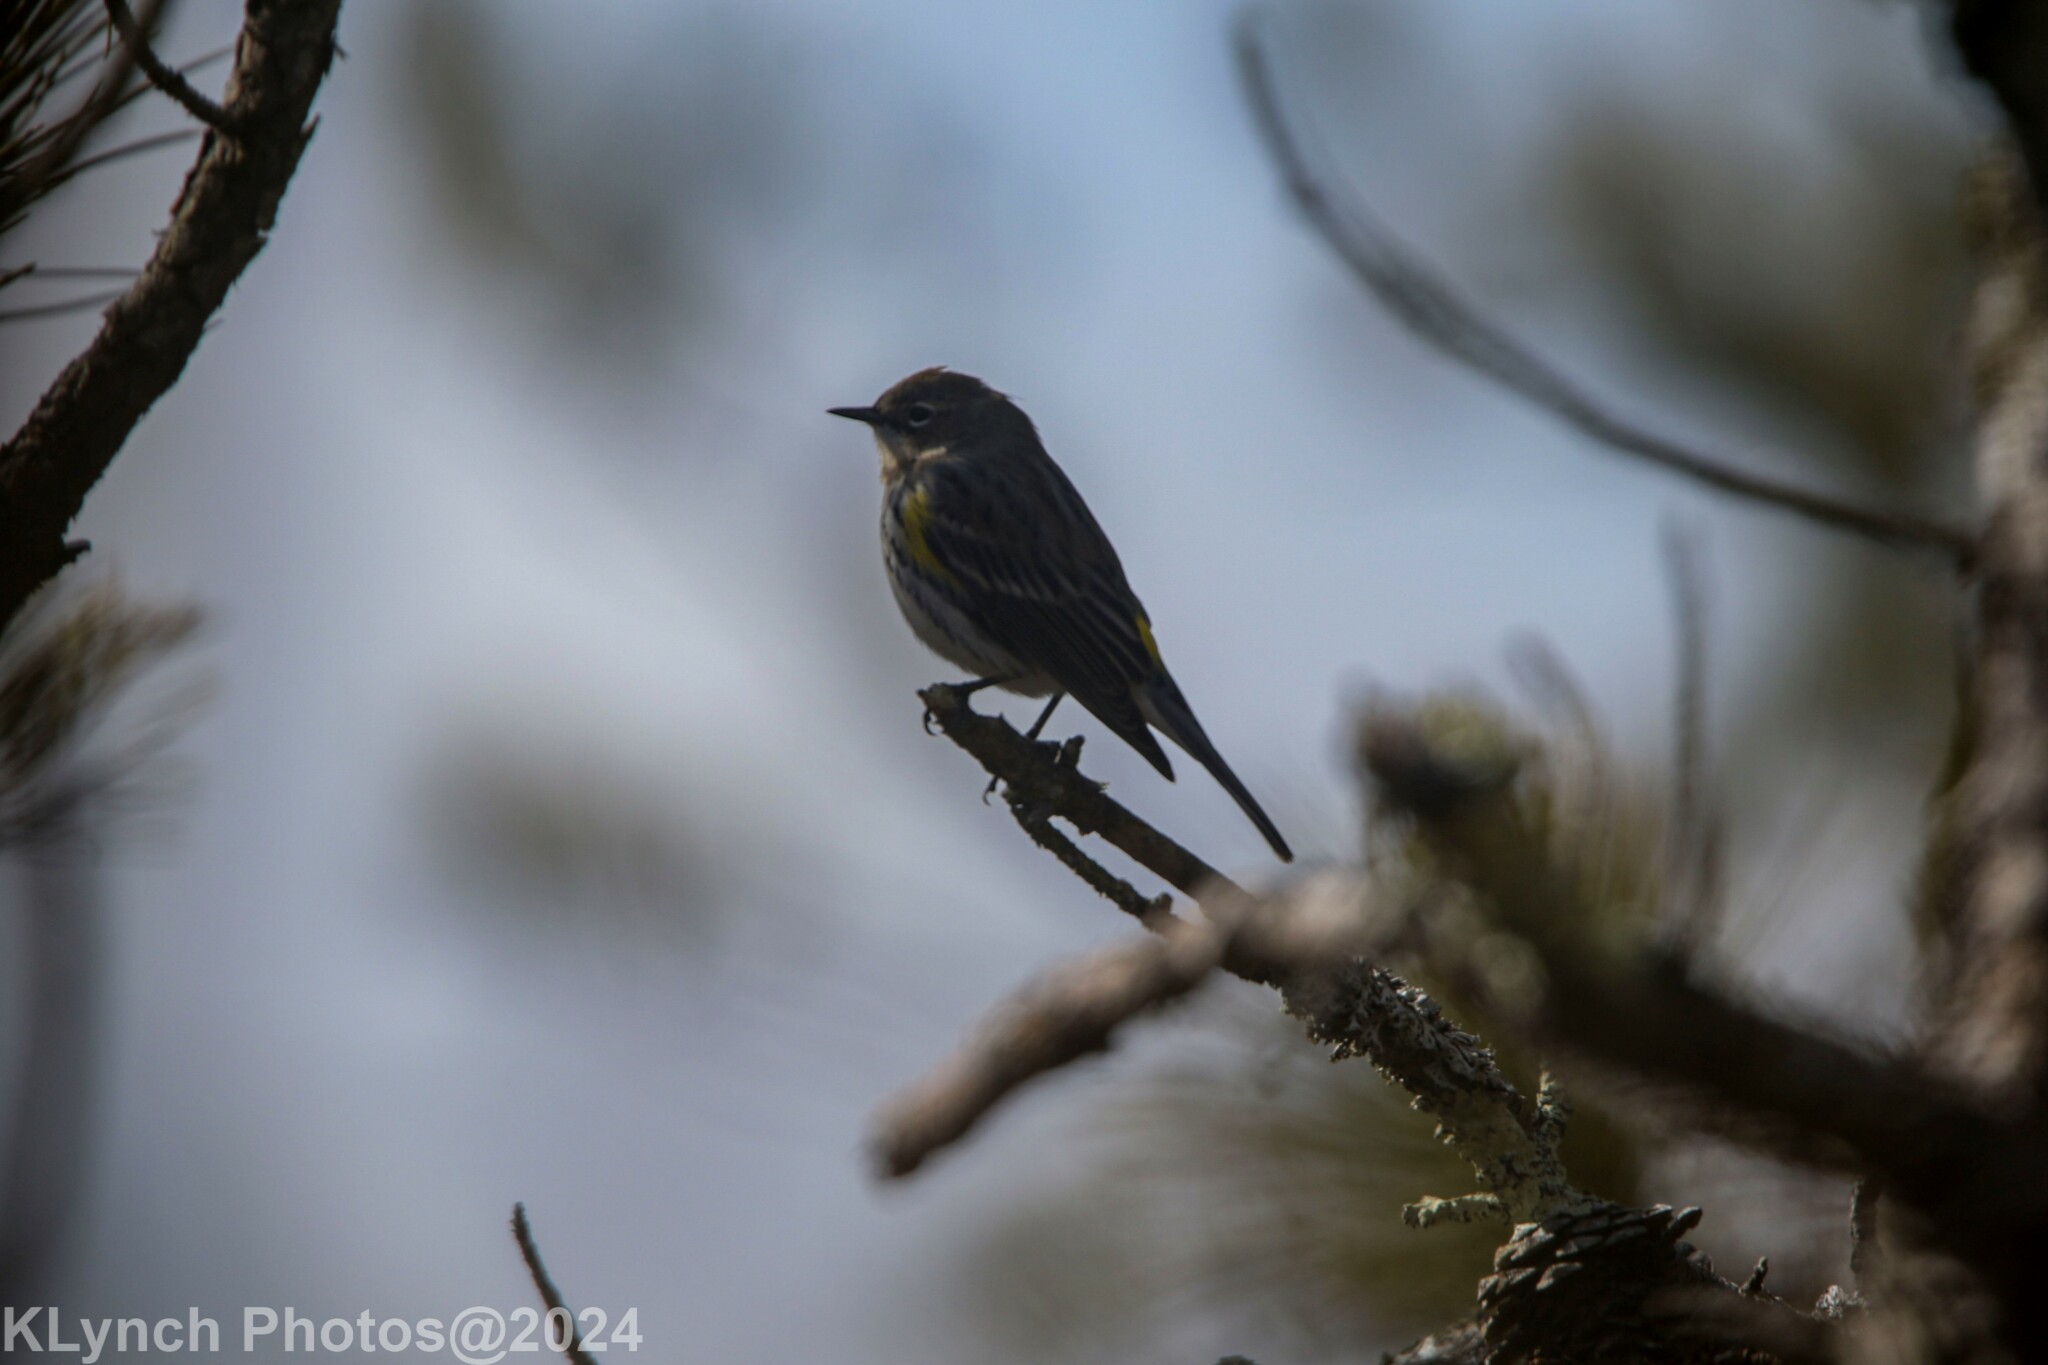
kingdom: Animalia
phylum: Chordata
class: Aves
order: Passeriformes
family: Parulidae
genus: Setophaga
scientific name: Setophaga coronata
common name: Myrtle warbler
